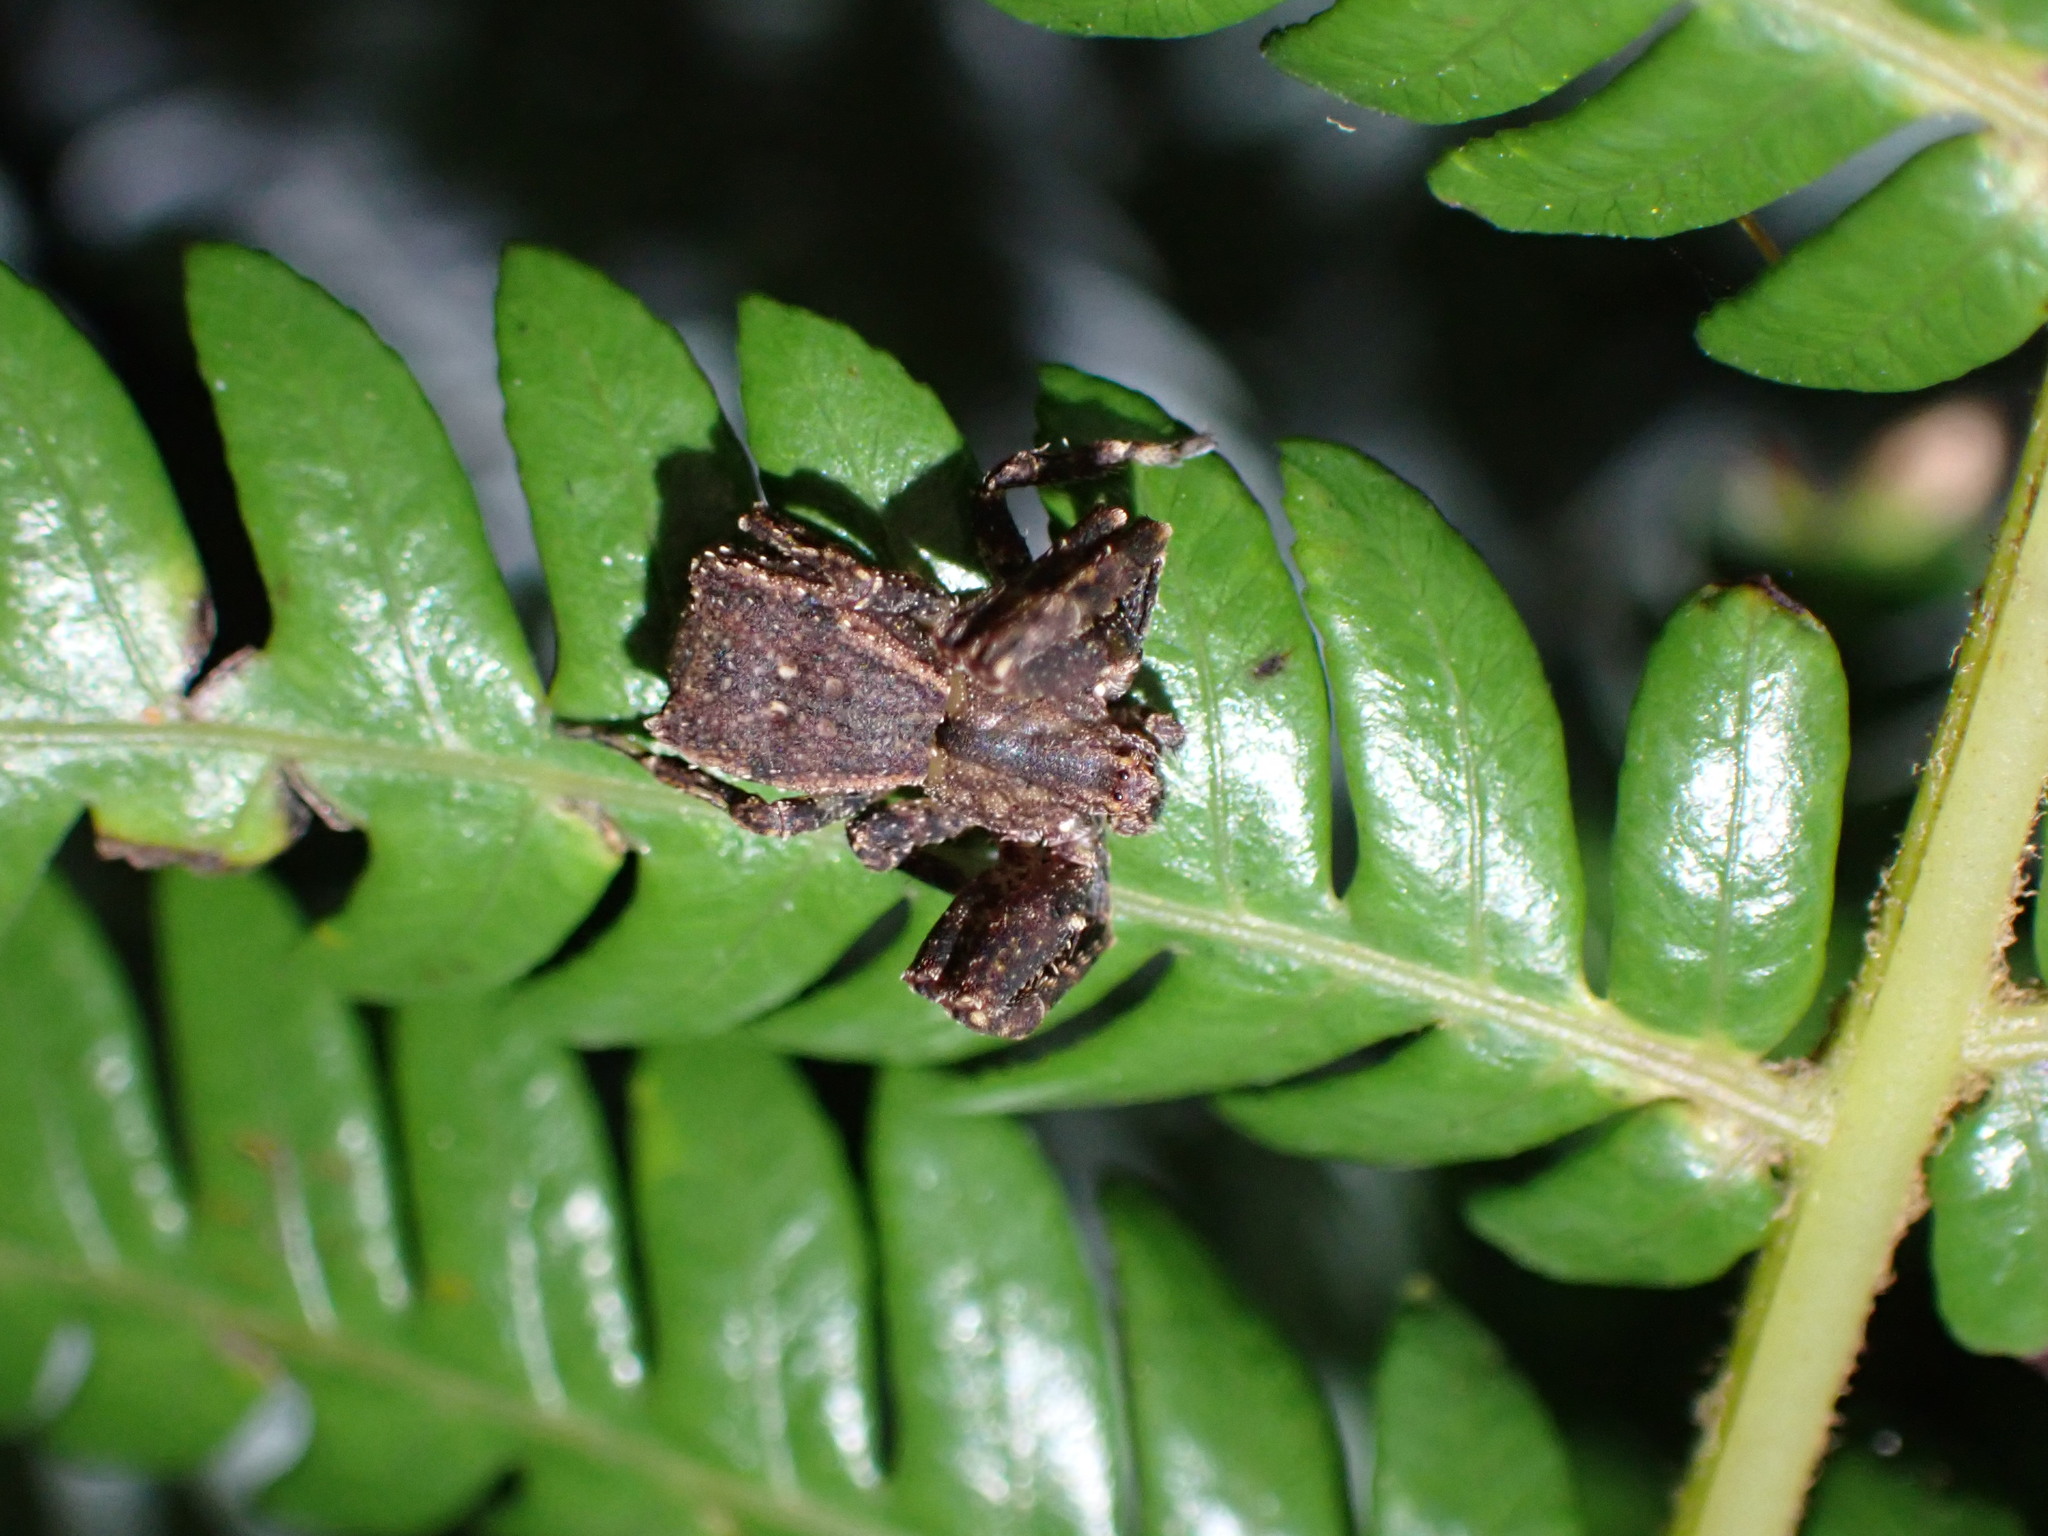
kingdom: Animalia
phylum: Arthropoda
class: Arachnida
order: Araneae
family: Thomisidae
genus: Sidymella
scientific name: Sidymella angularis
